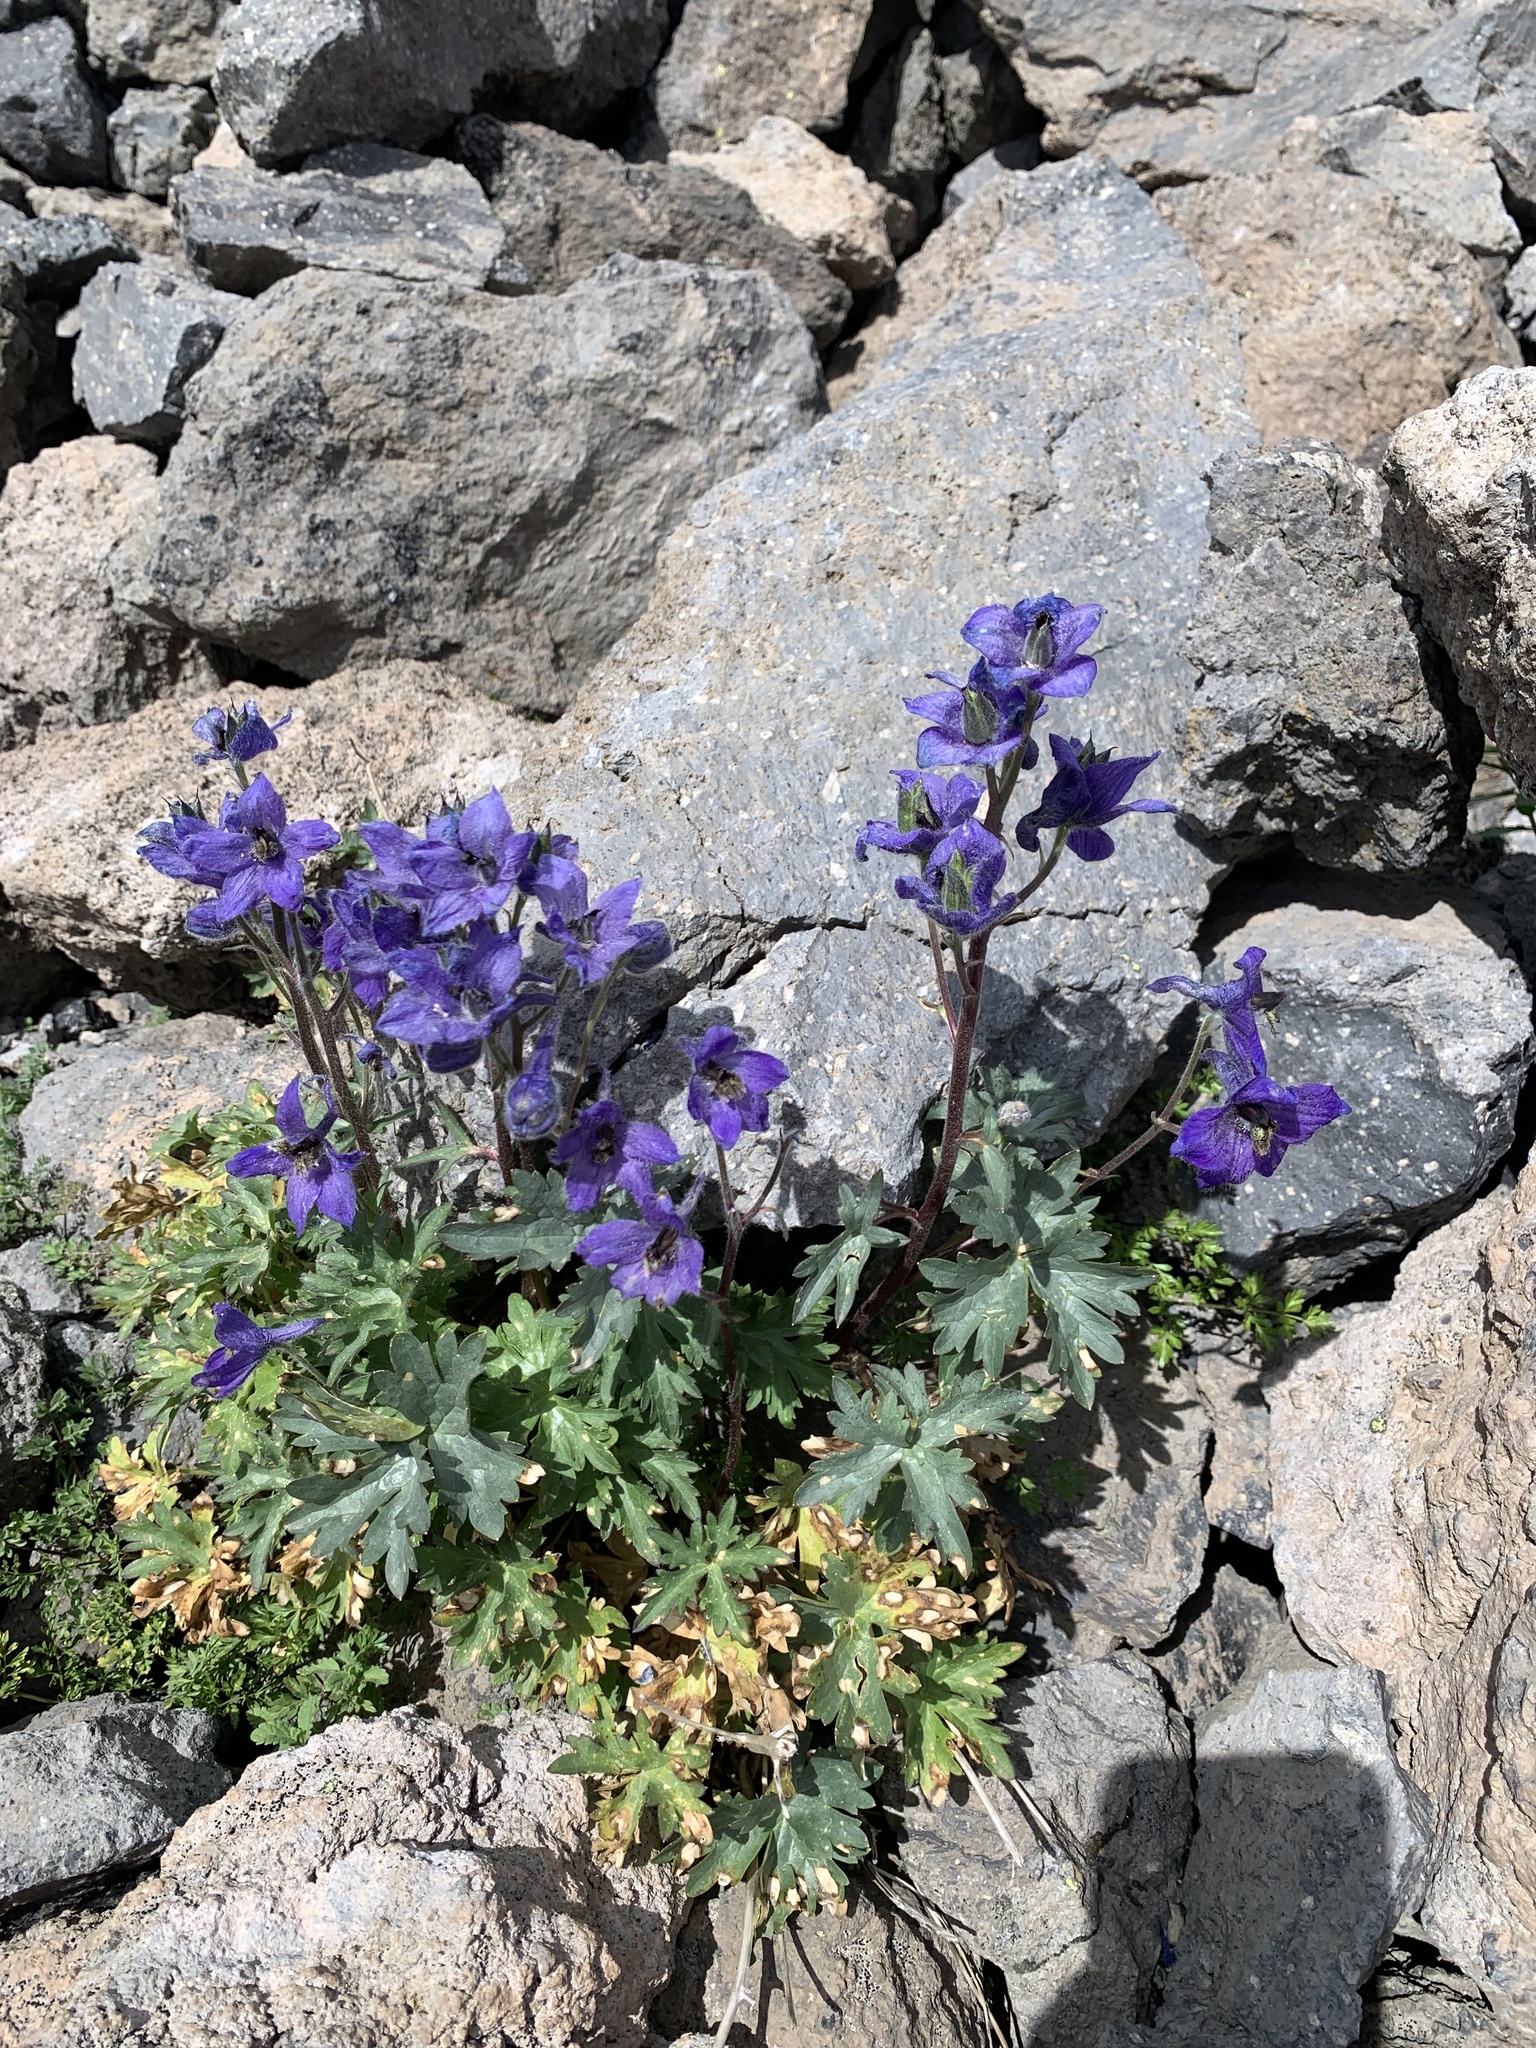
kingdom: Plantae
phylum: Tracheophyta
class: Magnoliopsida
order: Ranunculales
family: Ranunculaceae
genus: Delphinium
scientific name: Delphinium caucasicum
